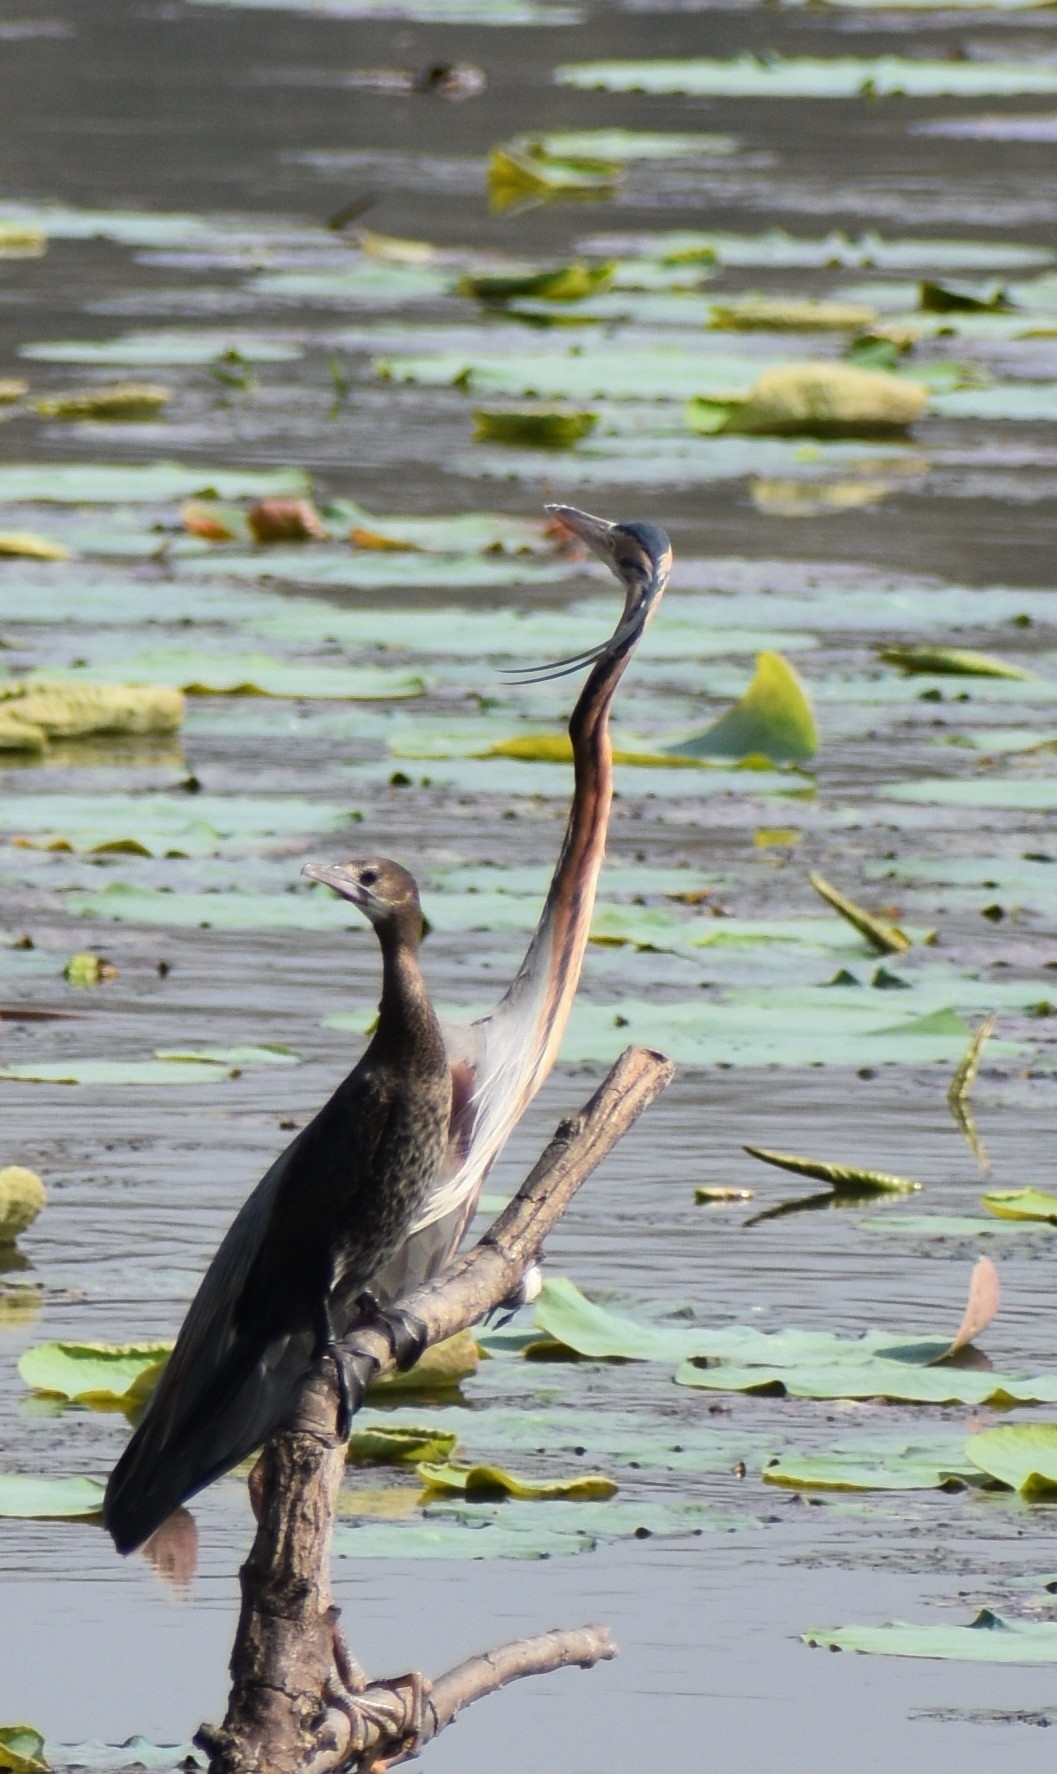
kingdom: Animalia
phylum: Chordata
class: Aves
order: Pelecaniformes
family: Ardeidae
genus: Ardea
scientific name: Ardea purpurea
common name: Purple heron
